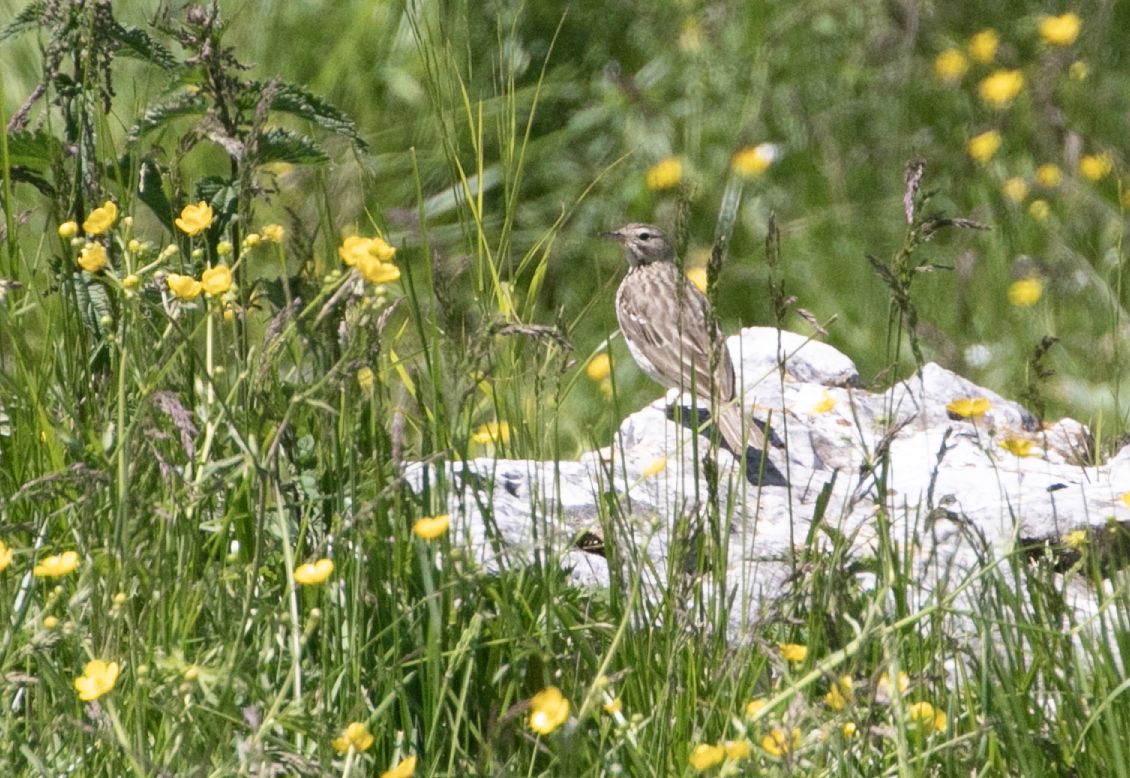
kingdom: Animalia
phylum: Chordata
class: Aves
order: Passeriformes
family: Motacillidae
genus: Anthus
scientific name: Anthus trivialis
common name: Tree pipit
